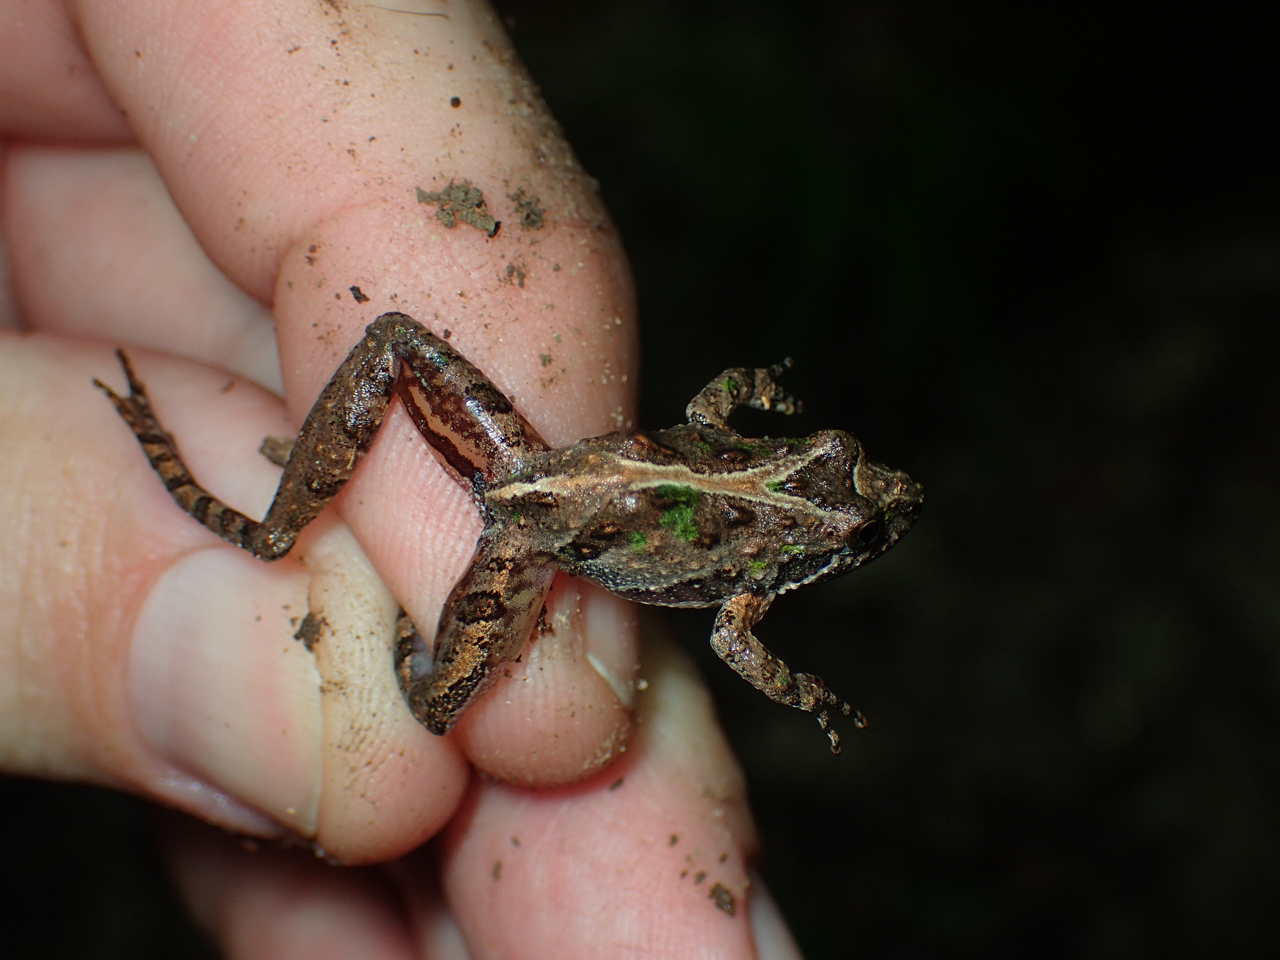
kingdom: Animalia
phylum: Chordata
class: Amphibia
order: Anura
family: Hylidae
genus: Acris
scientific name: Acris gryllus
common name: Southern cricket frog
